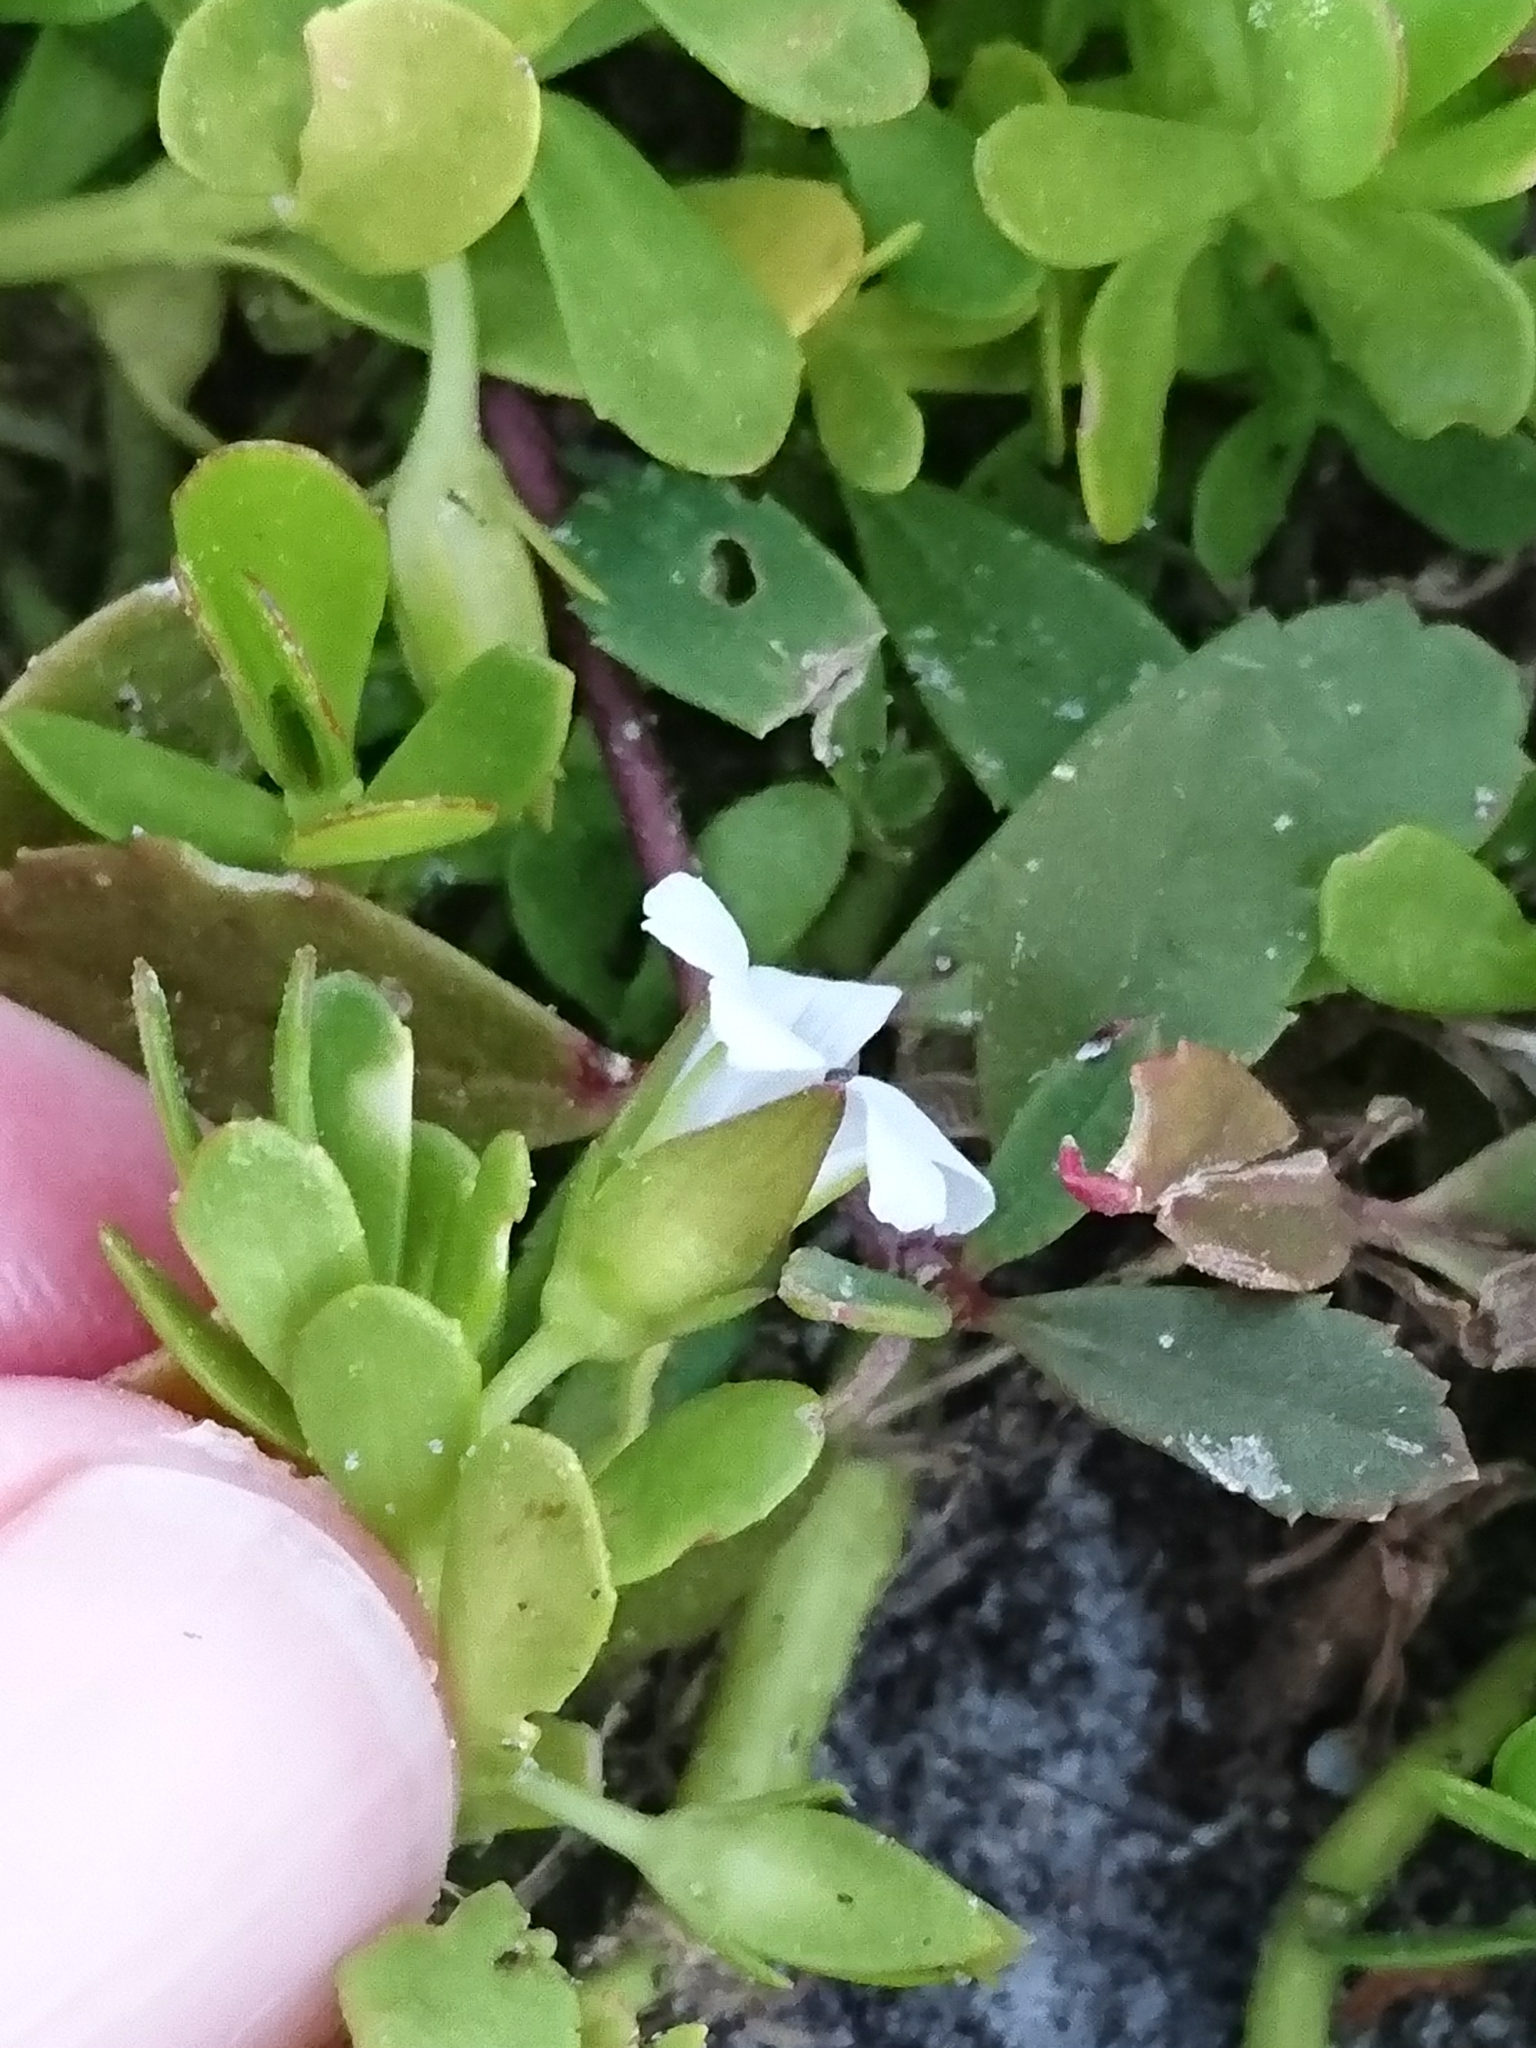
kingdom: Plantae
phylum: Tracheophyta
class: Magnoliopsida
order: Lamiales
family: Plantaginaceae
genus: Bacopa
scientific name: Bacopa monnieri
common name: Indian-pennywort
